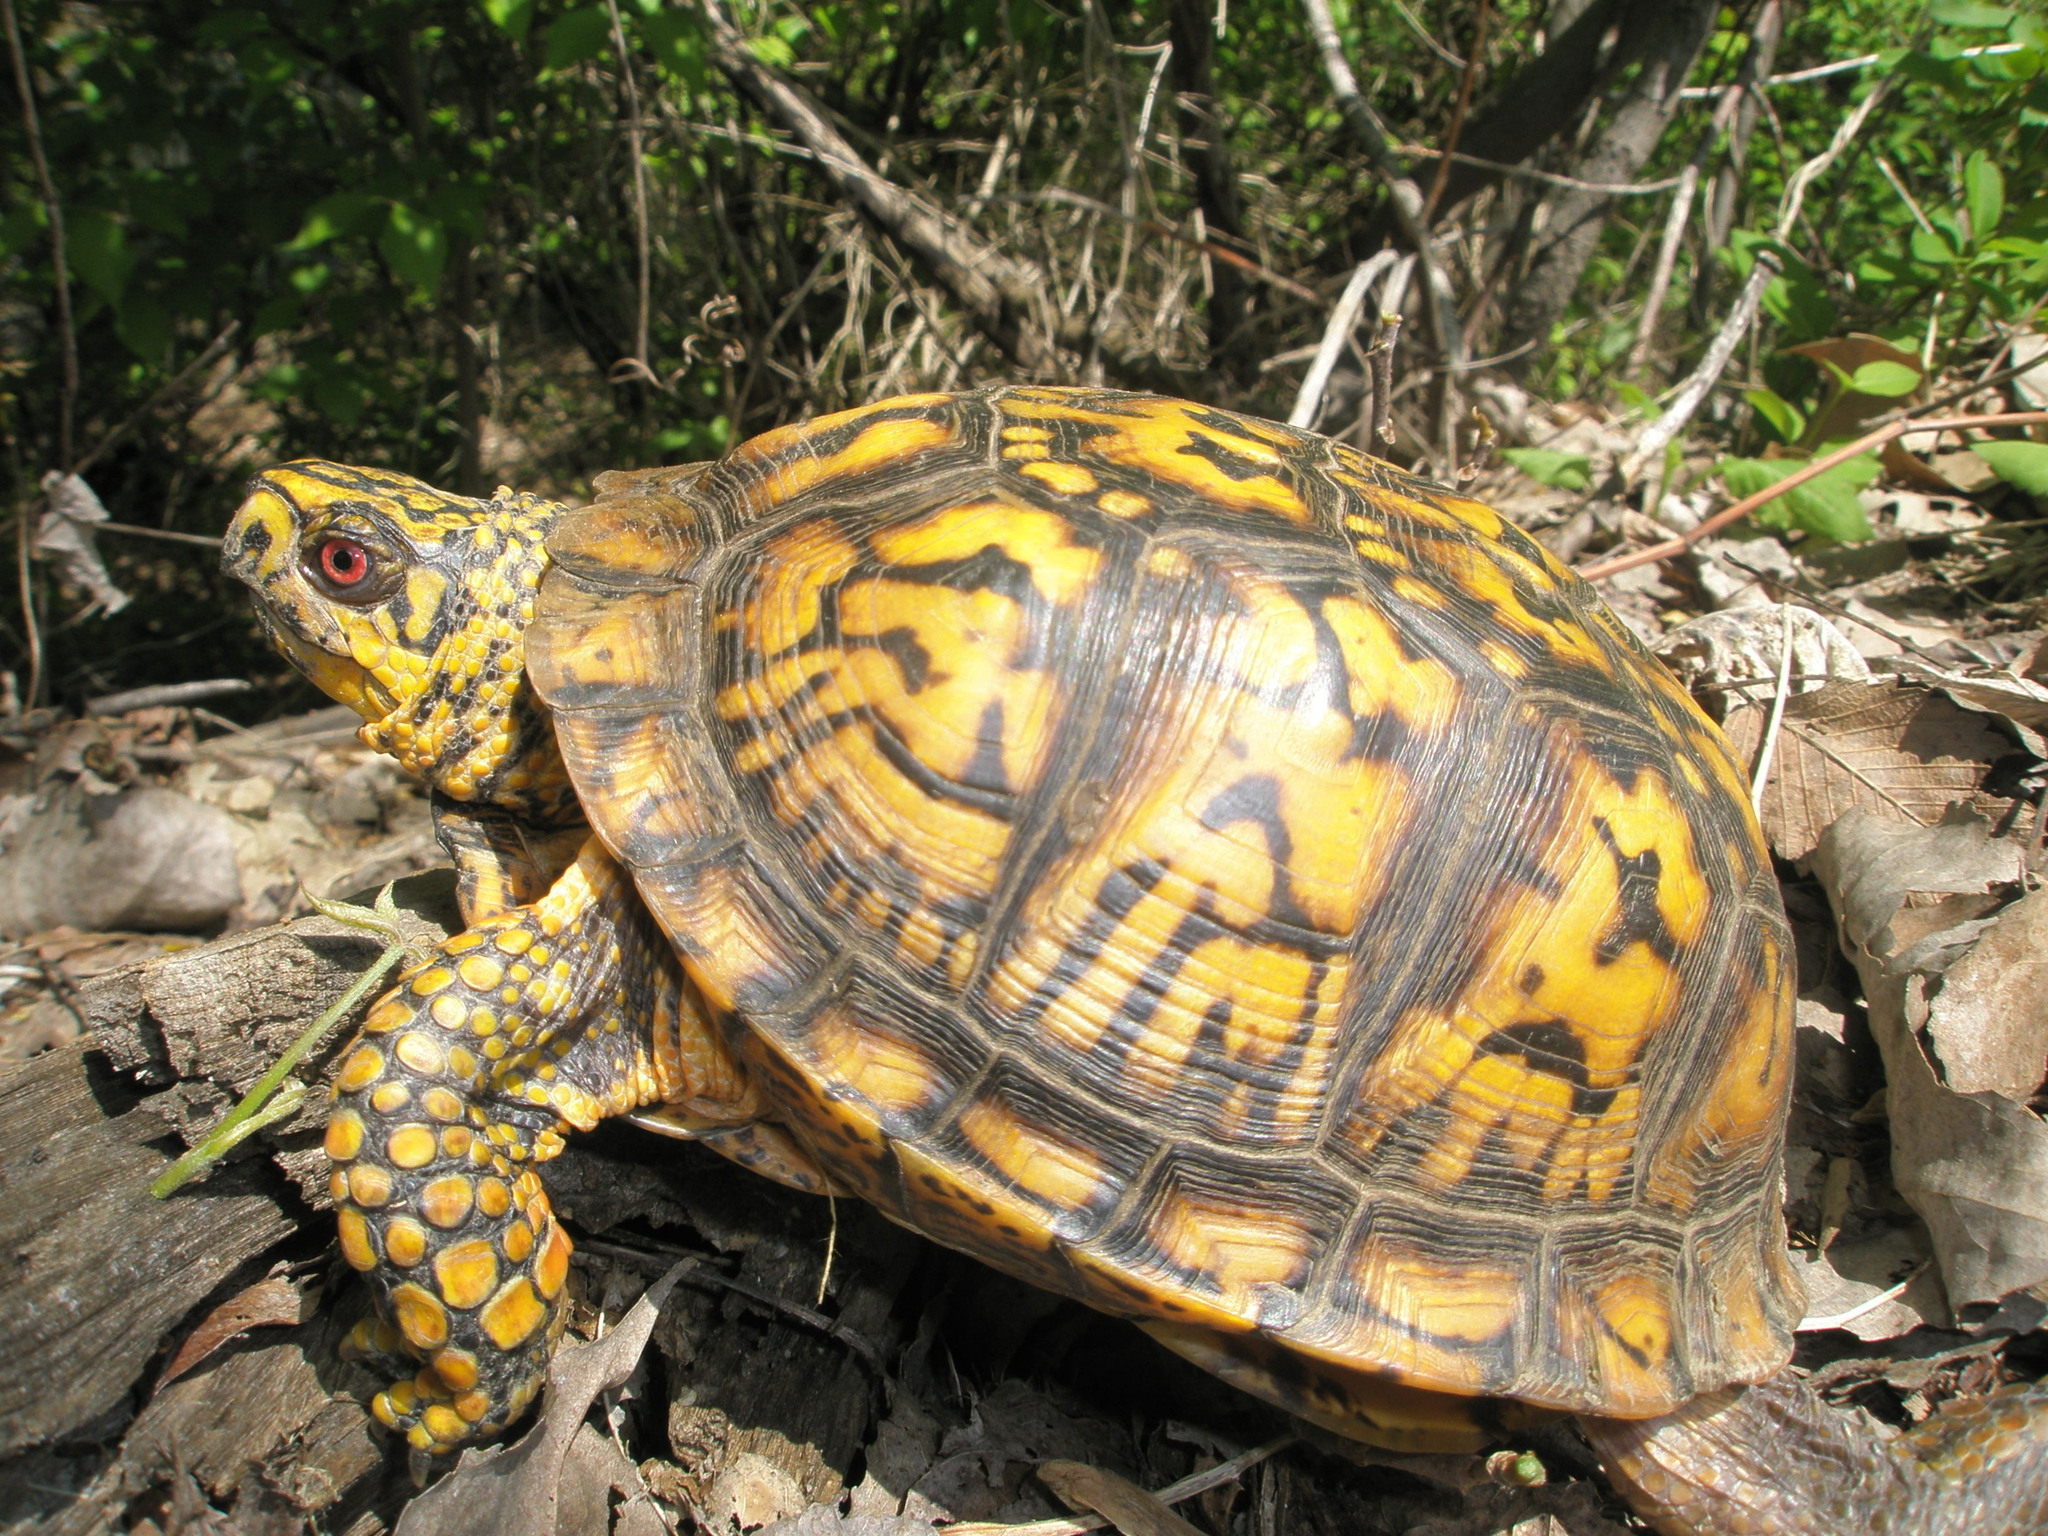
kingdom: Animalia
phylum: Chordata
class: Testudines
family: Emydidae
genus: Terrapene
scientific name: Terrapene carolina
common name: Common box turtle
